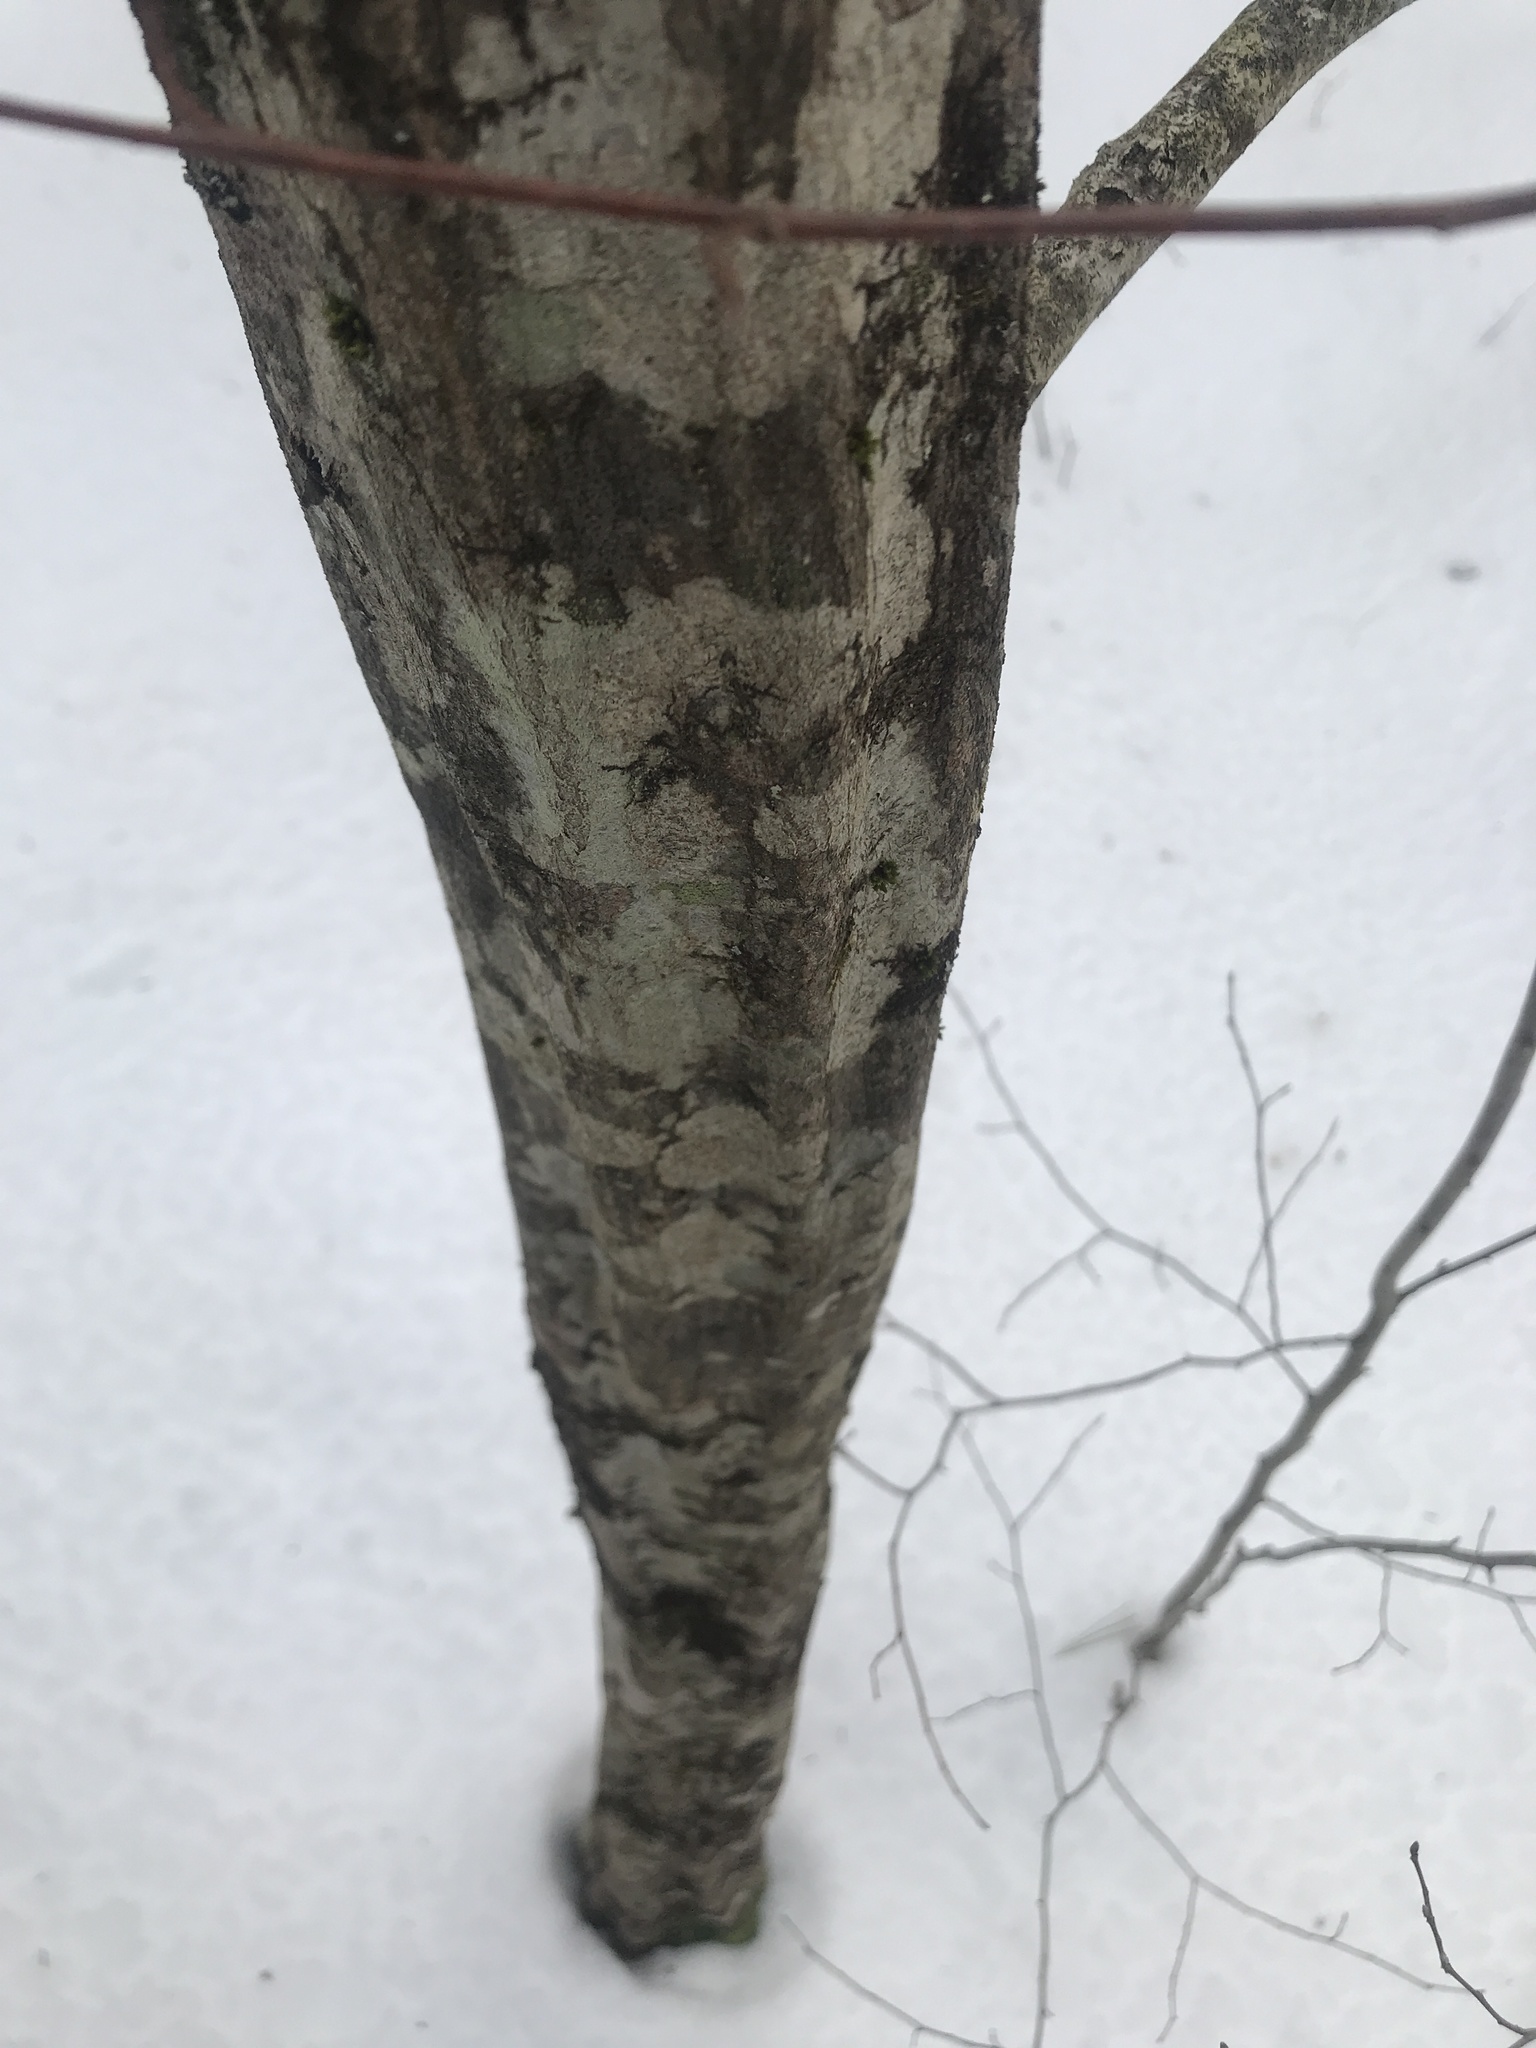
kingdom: Plantae
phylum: Tracheophyta
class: Magnoliopsida
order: Fagales
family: Betulaceae
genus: Carpinus
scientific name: Carpinus caroliniana
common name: American hornbeam
